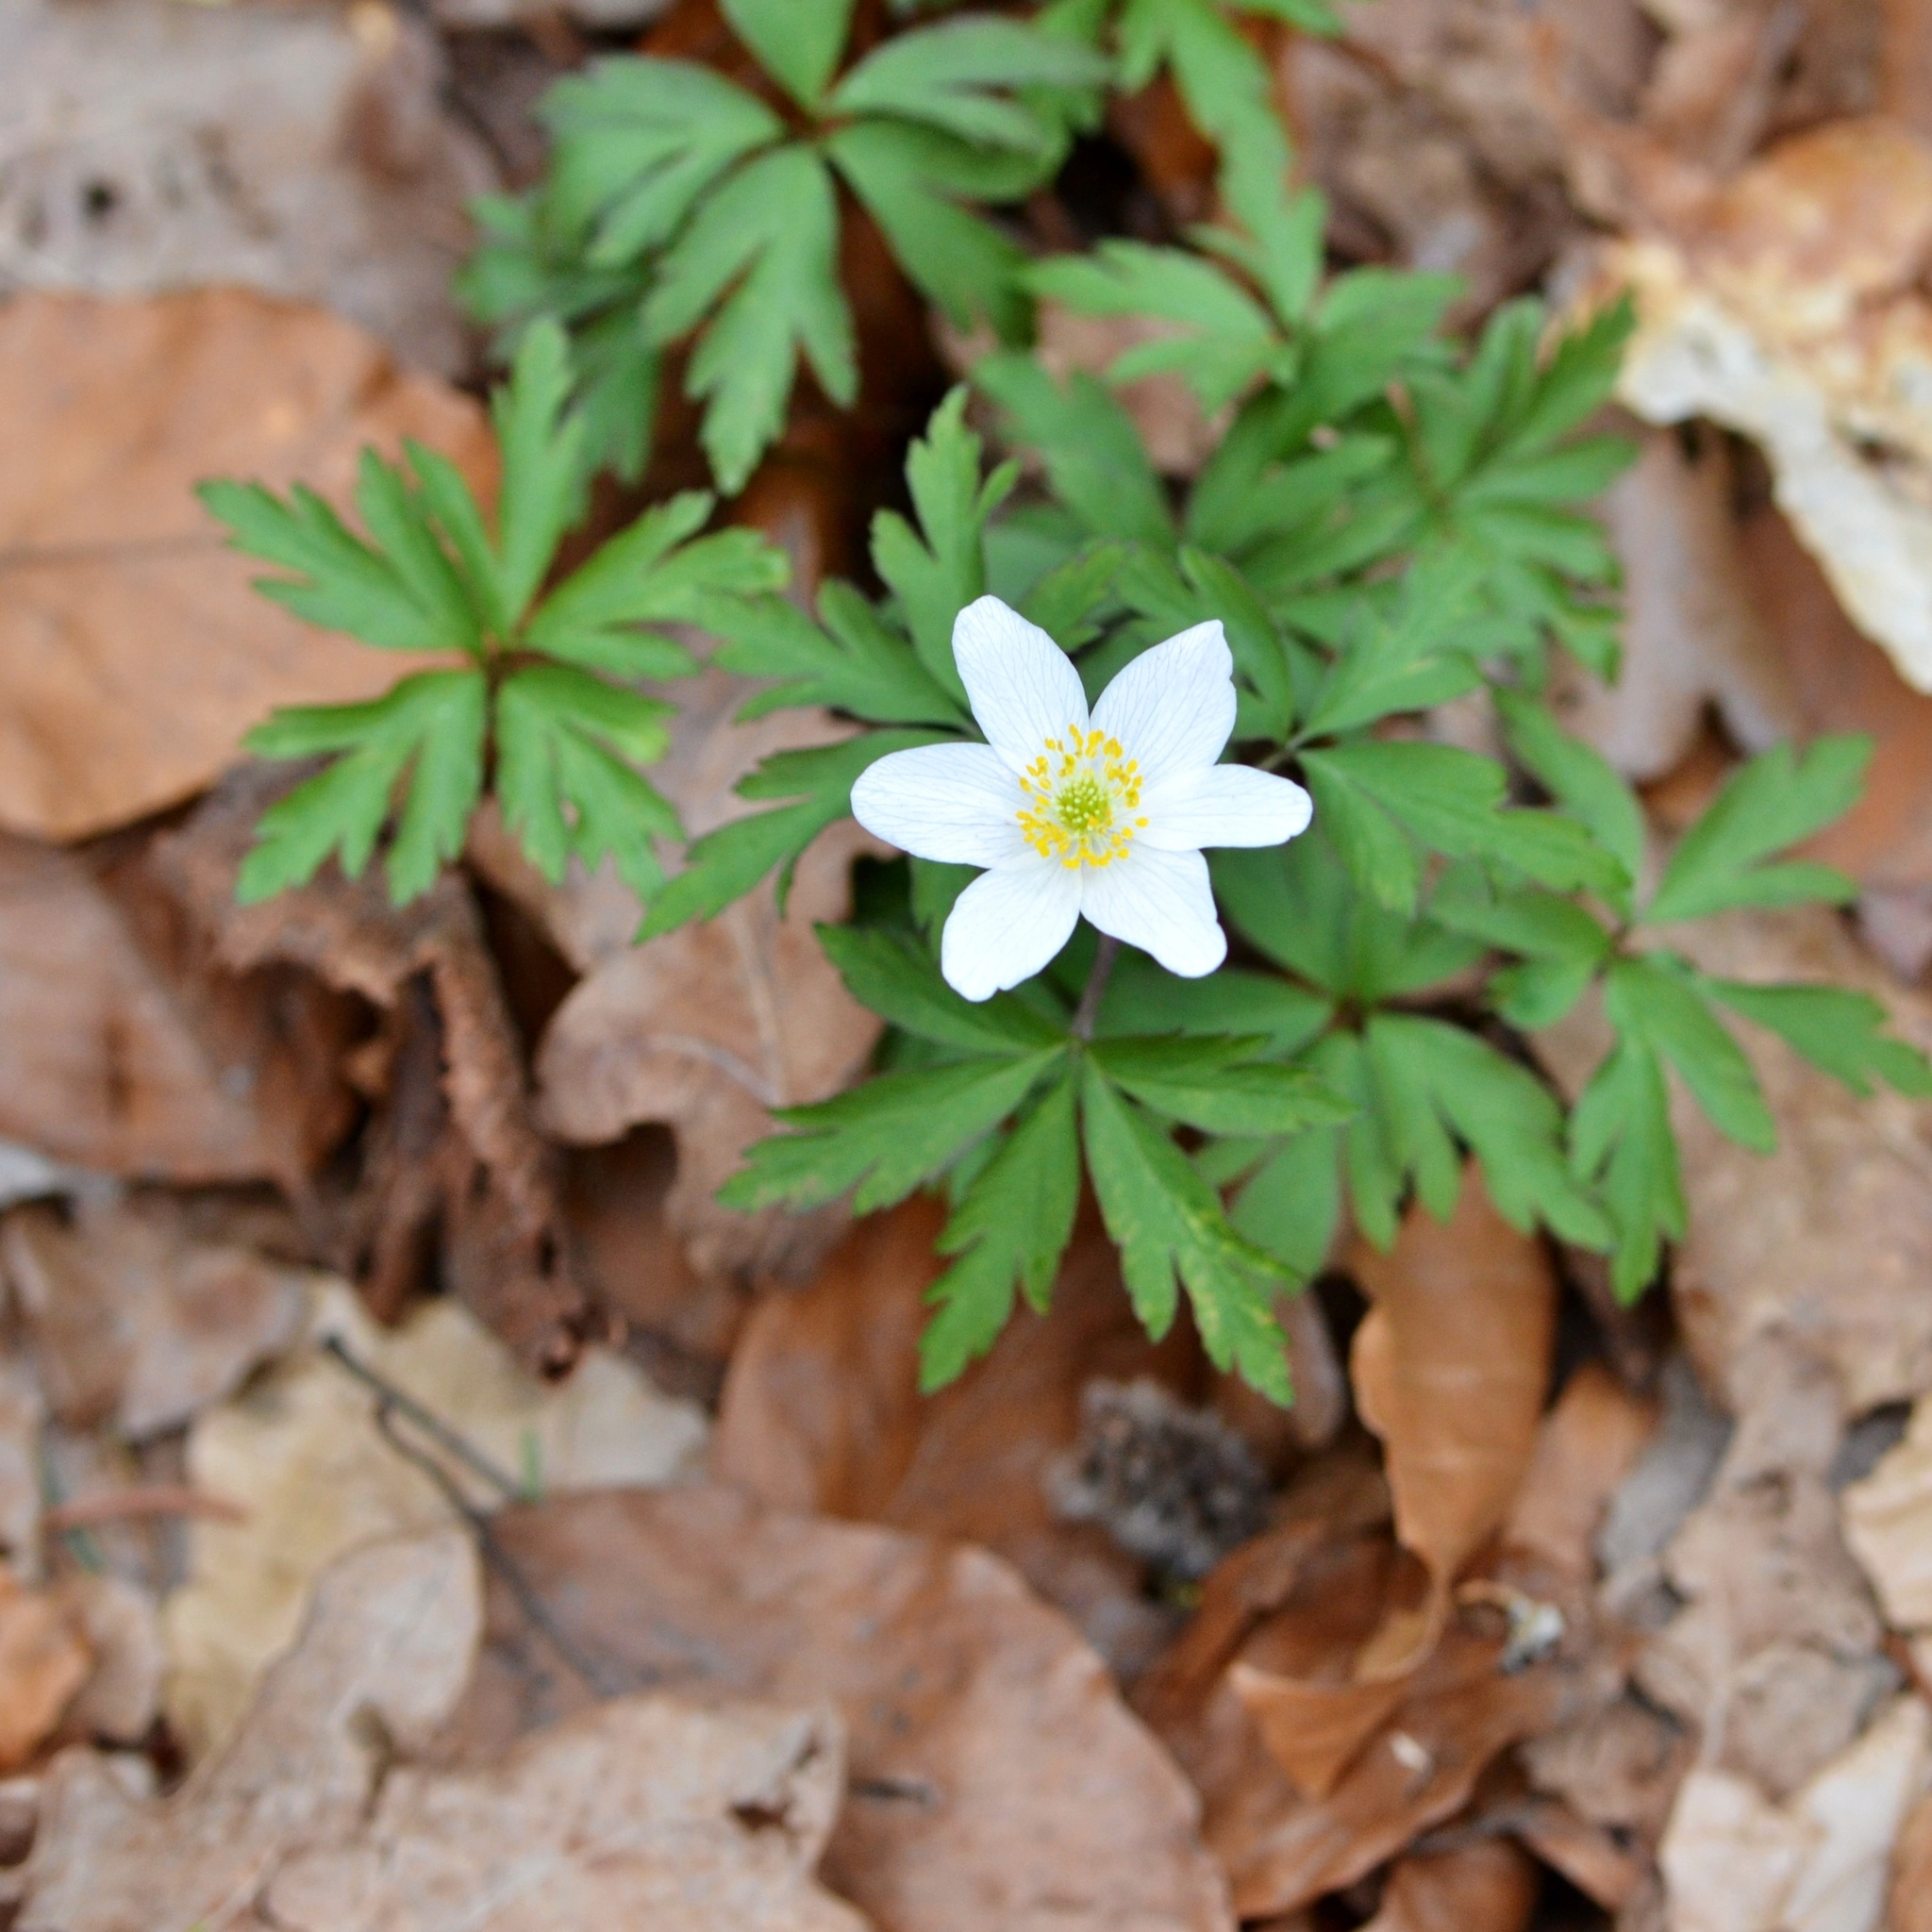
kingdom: Plantae
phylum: Tracheophyta
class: Magnoliopsida
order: Ranunculales
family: Ranunculaceae
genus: Anemone
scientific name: Anemone nemorosa
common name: Wood anemone
